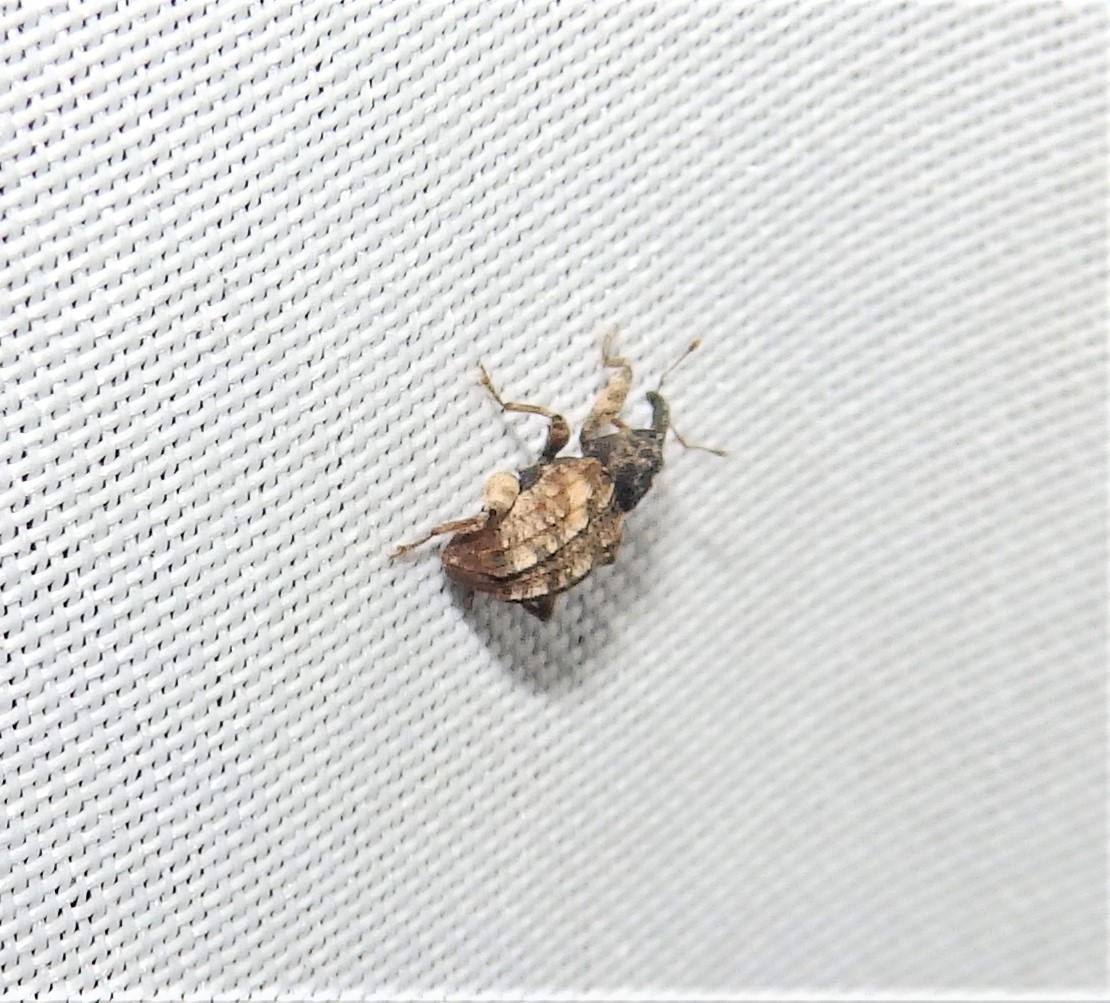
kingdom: Animalia
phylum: Arthropoda
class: Insecta
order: Coleoptera
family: Curculionidae
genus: Conotrachelus
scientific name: Conotrachelus anaglypticus
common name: Cambium curculio
